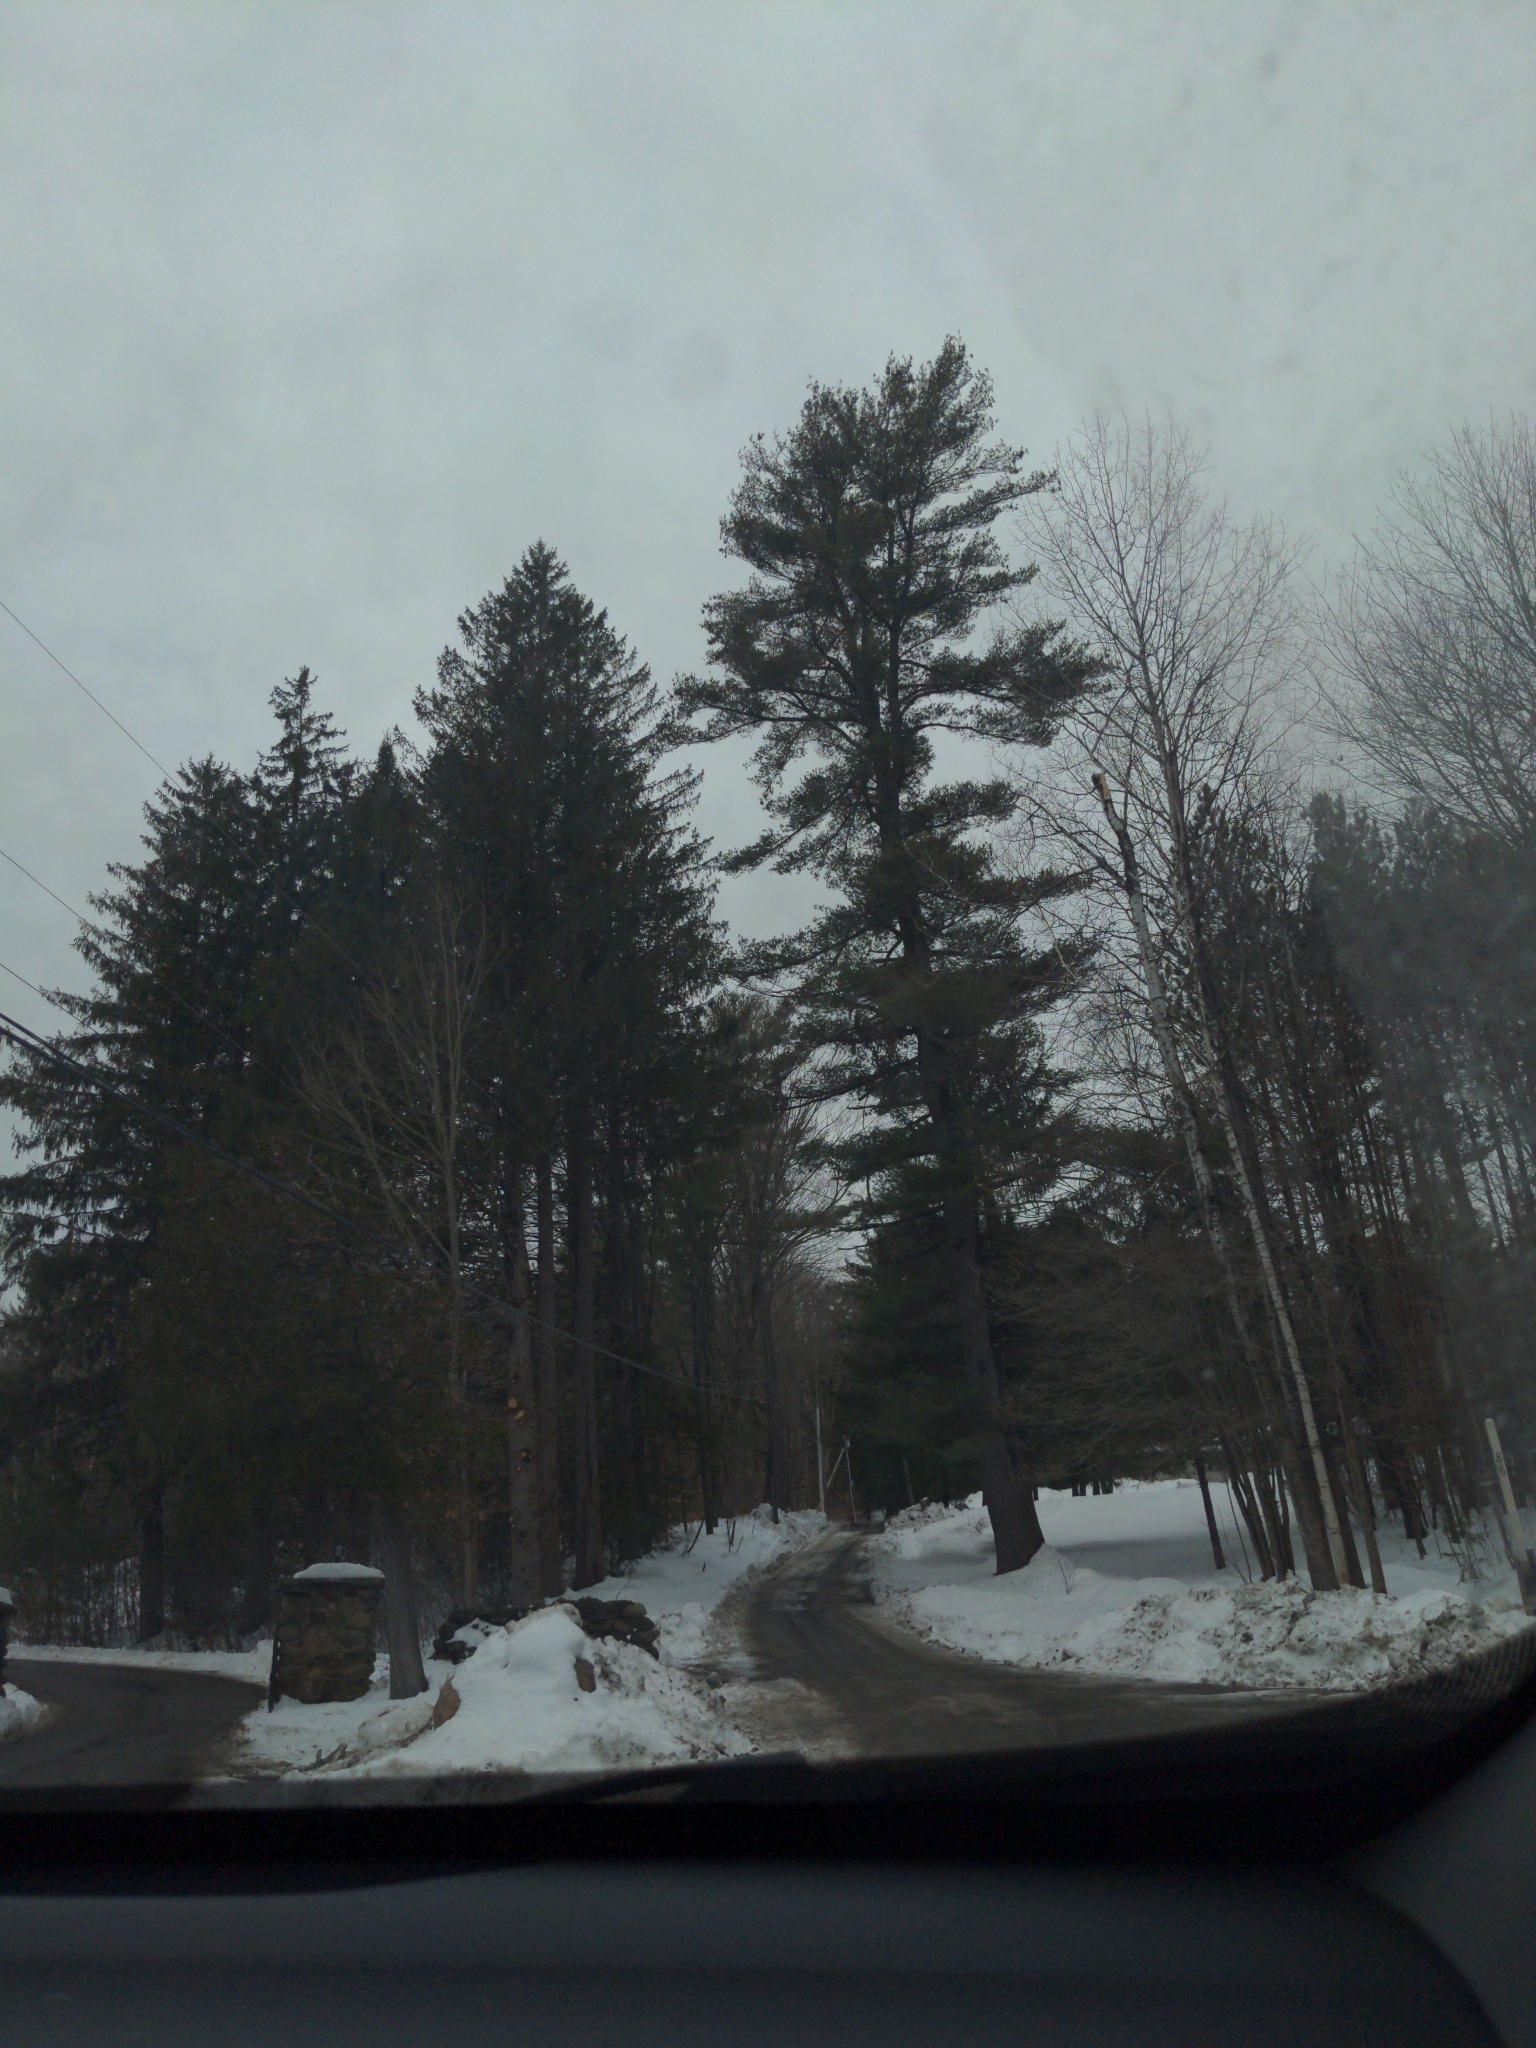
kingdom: Plantae
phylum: Tracheophyta
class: Pinopsida
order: Pinales
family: Pinaceae
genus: Pinus
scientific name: Pinus strobus
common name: Weymouth pine
